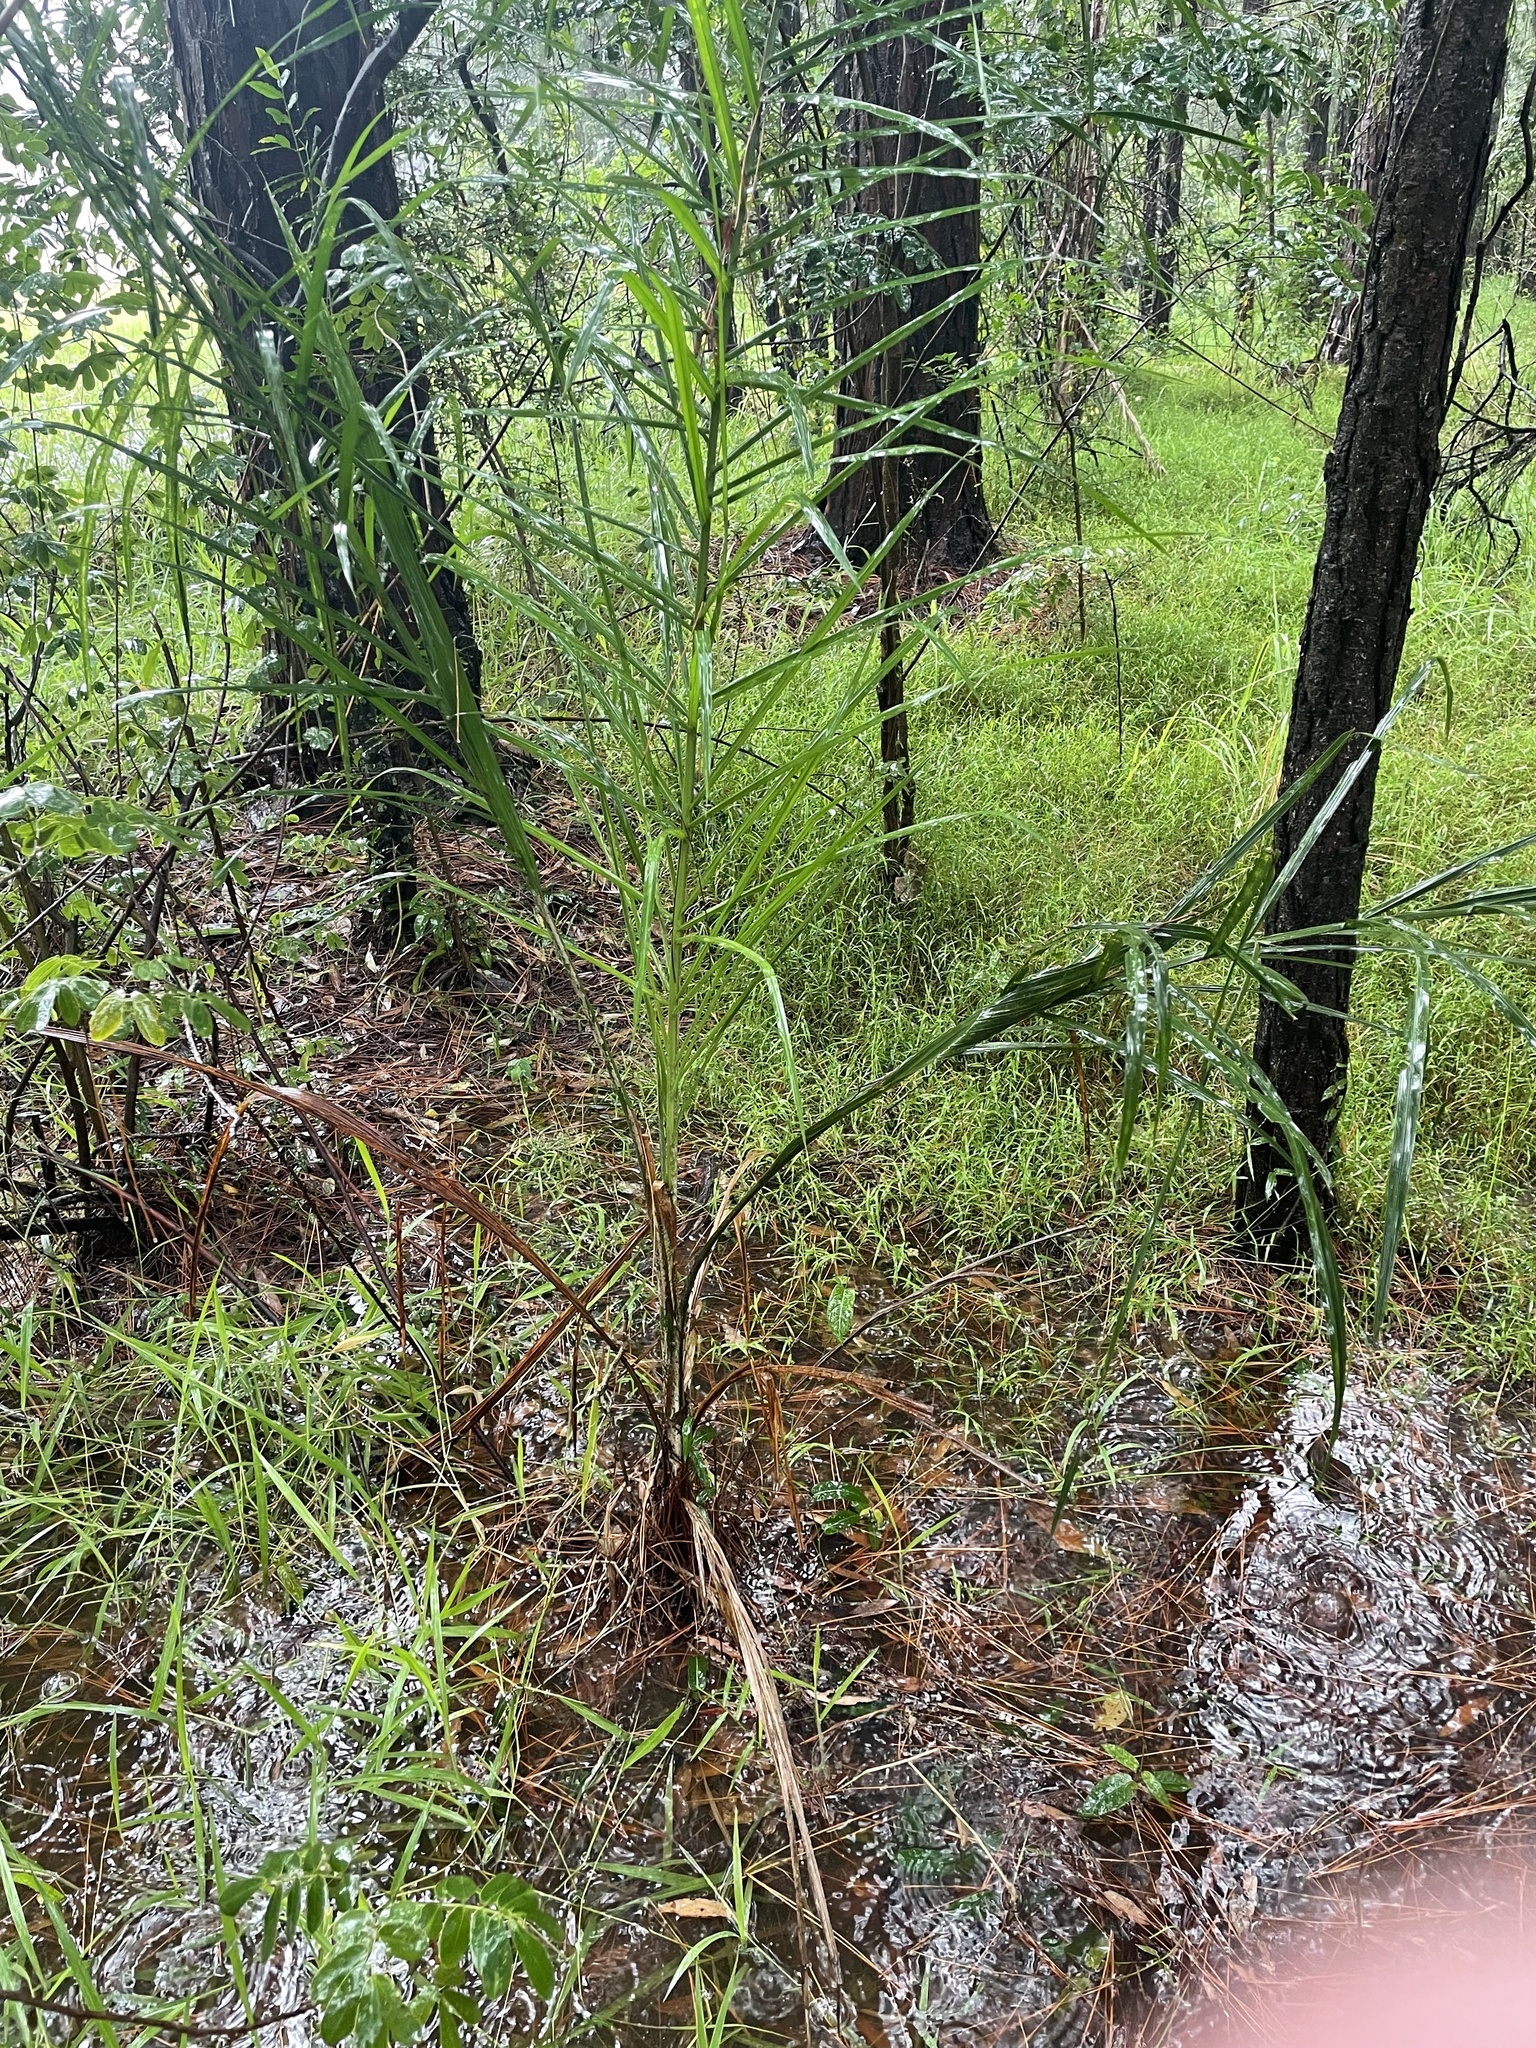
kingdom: Plantae
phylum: Tracheophyta
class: Liliopsida
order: Arecales
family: Arecaceae
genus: Syagrus
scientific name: Syagrus romanzoffiana
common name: Queen palm
